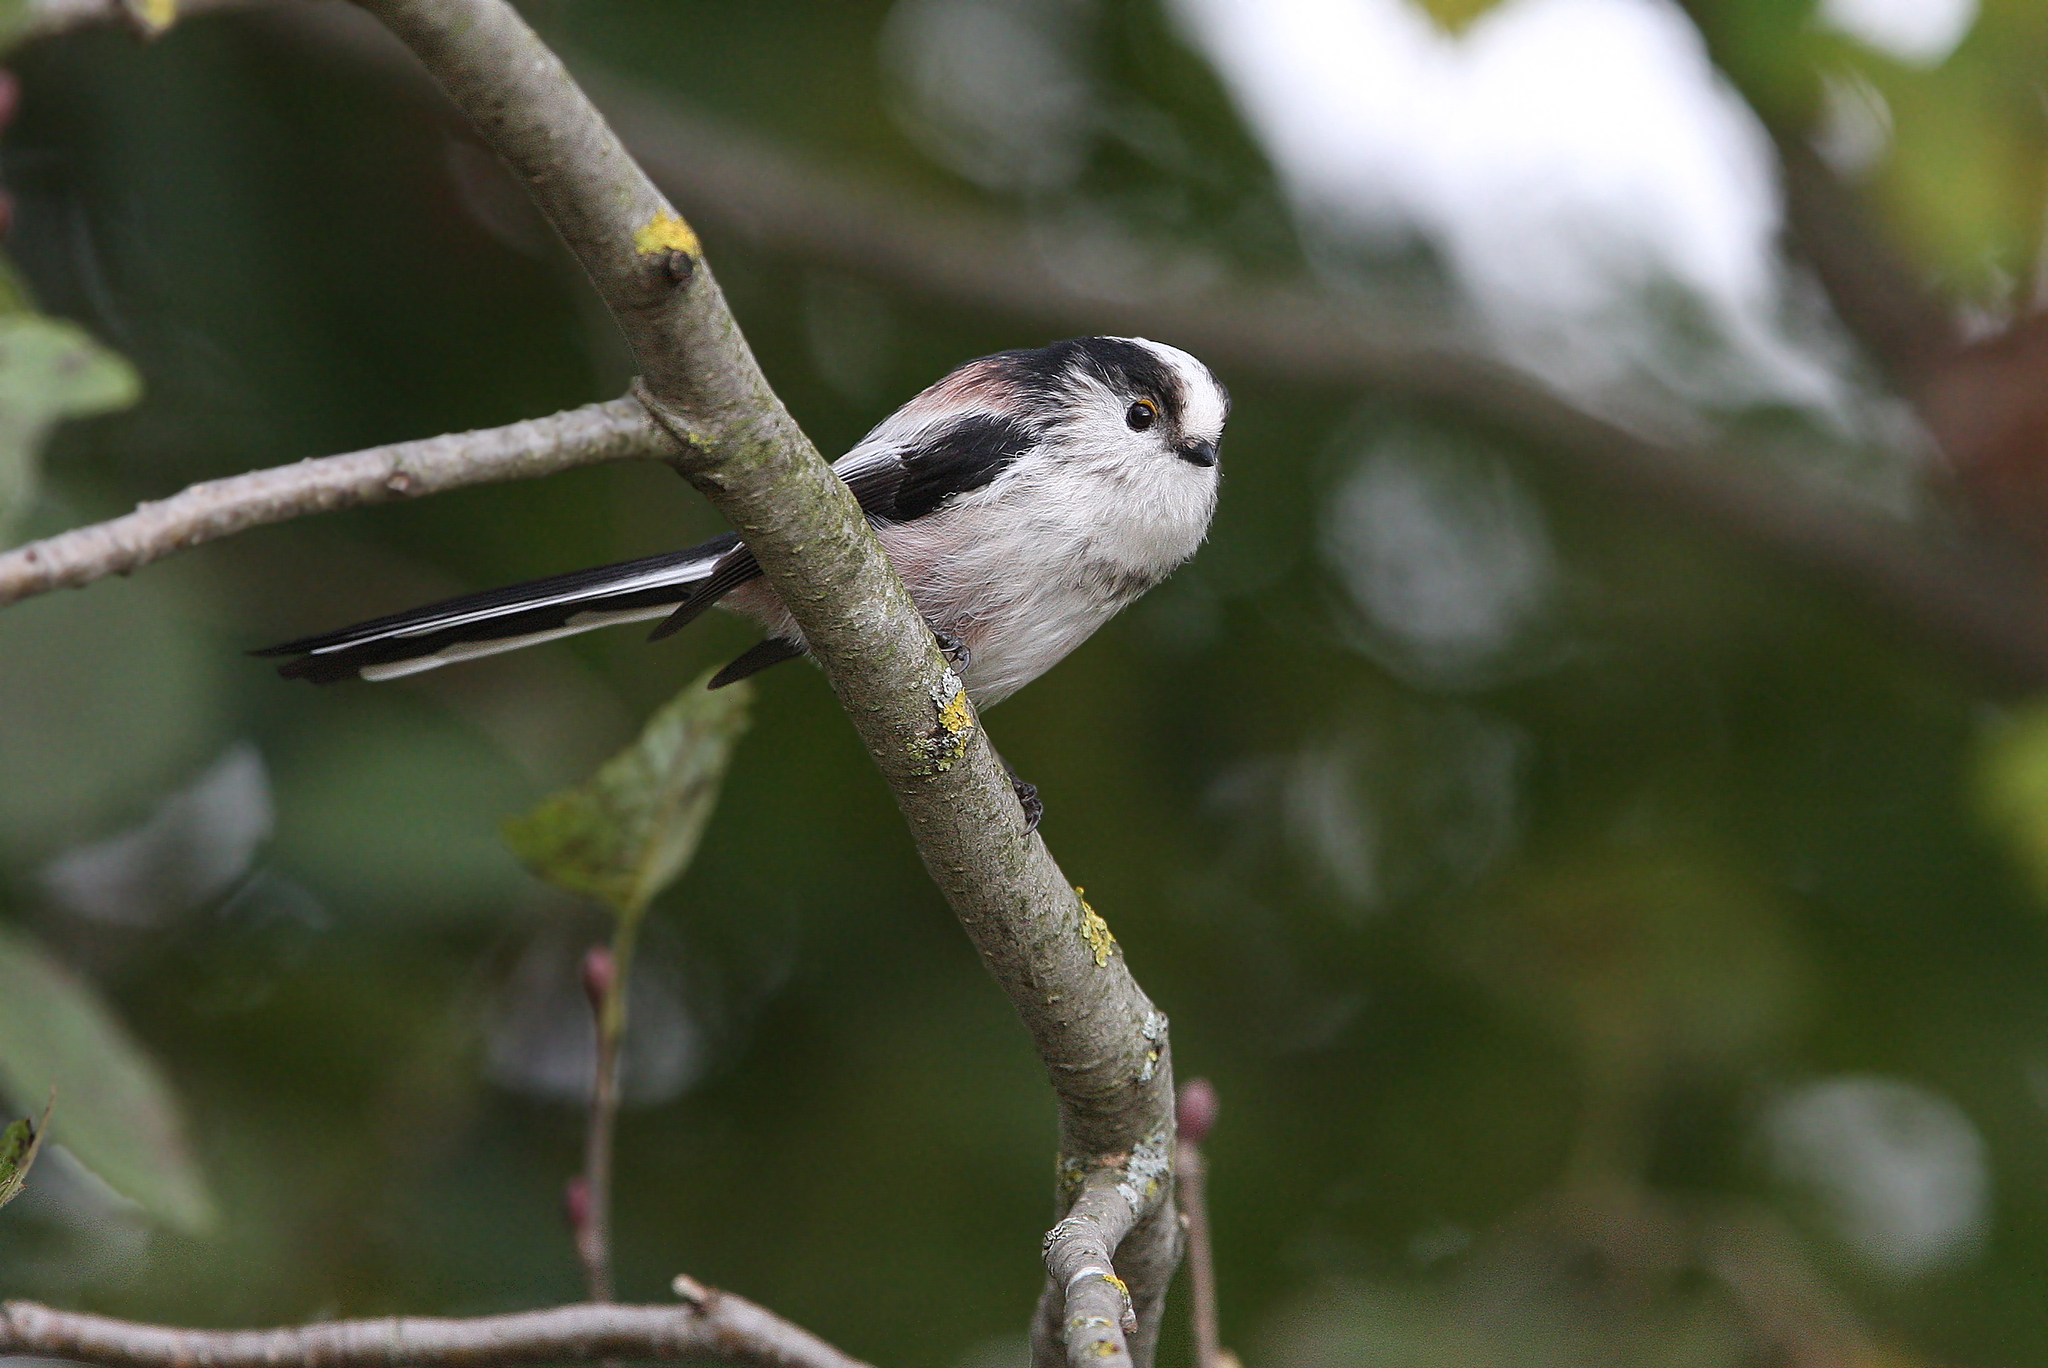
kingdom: Animalia
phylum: Chordata
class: Aves
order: Passeriformes
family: Aegithalidae
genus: Aegithalos
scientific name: Aegithalos caudatus
